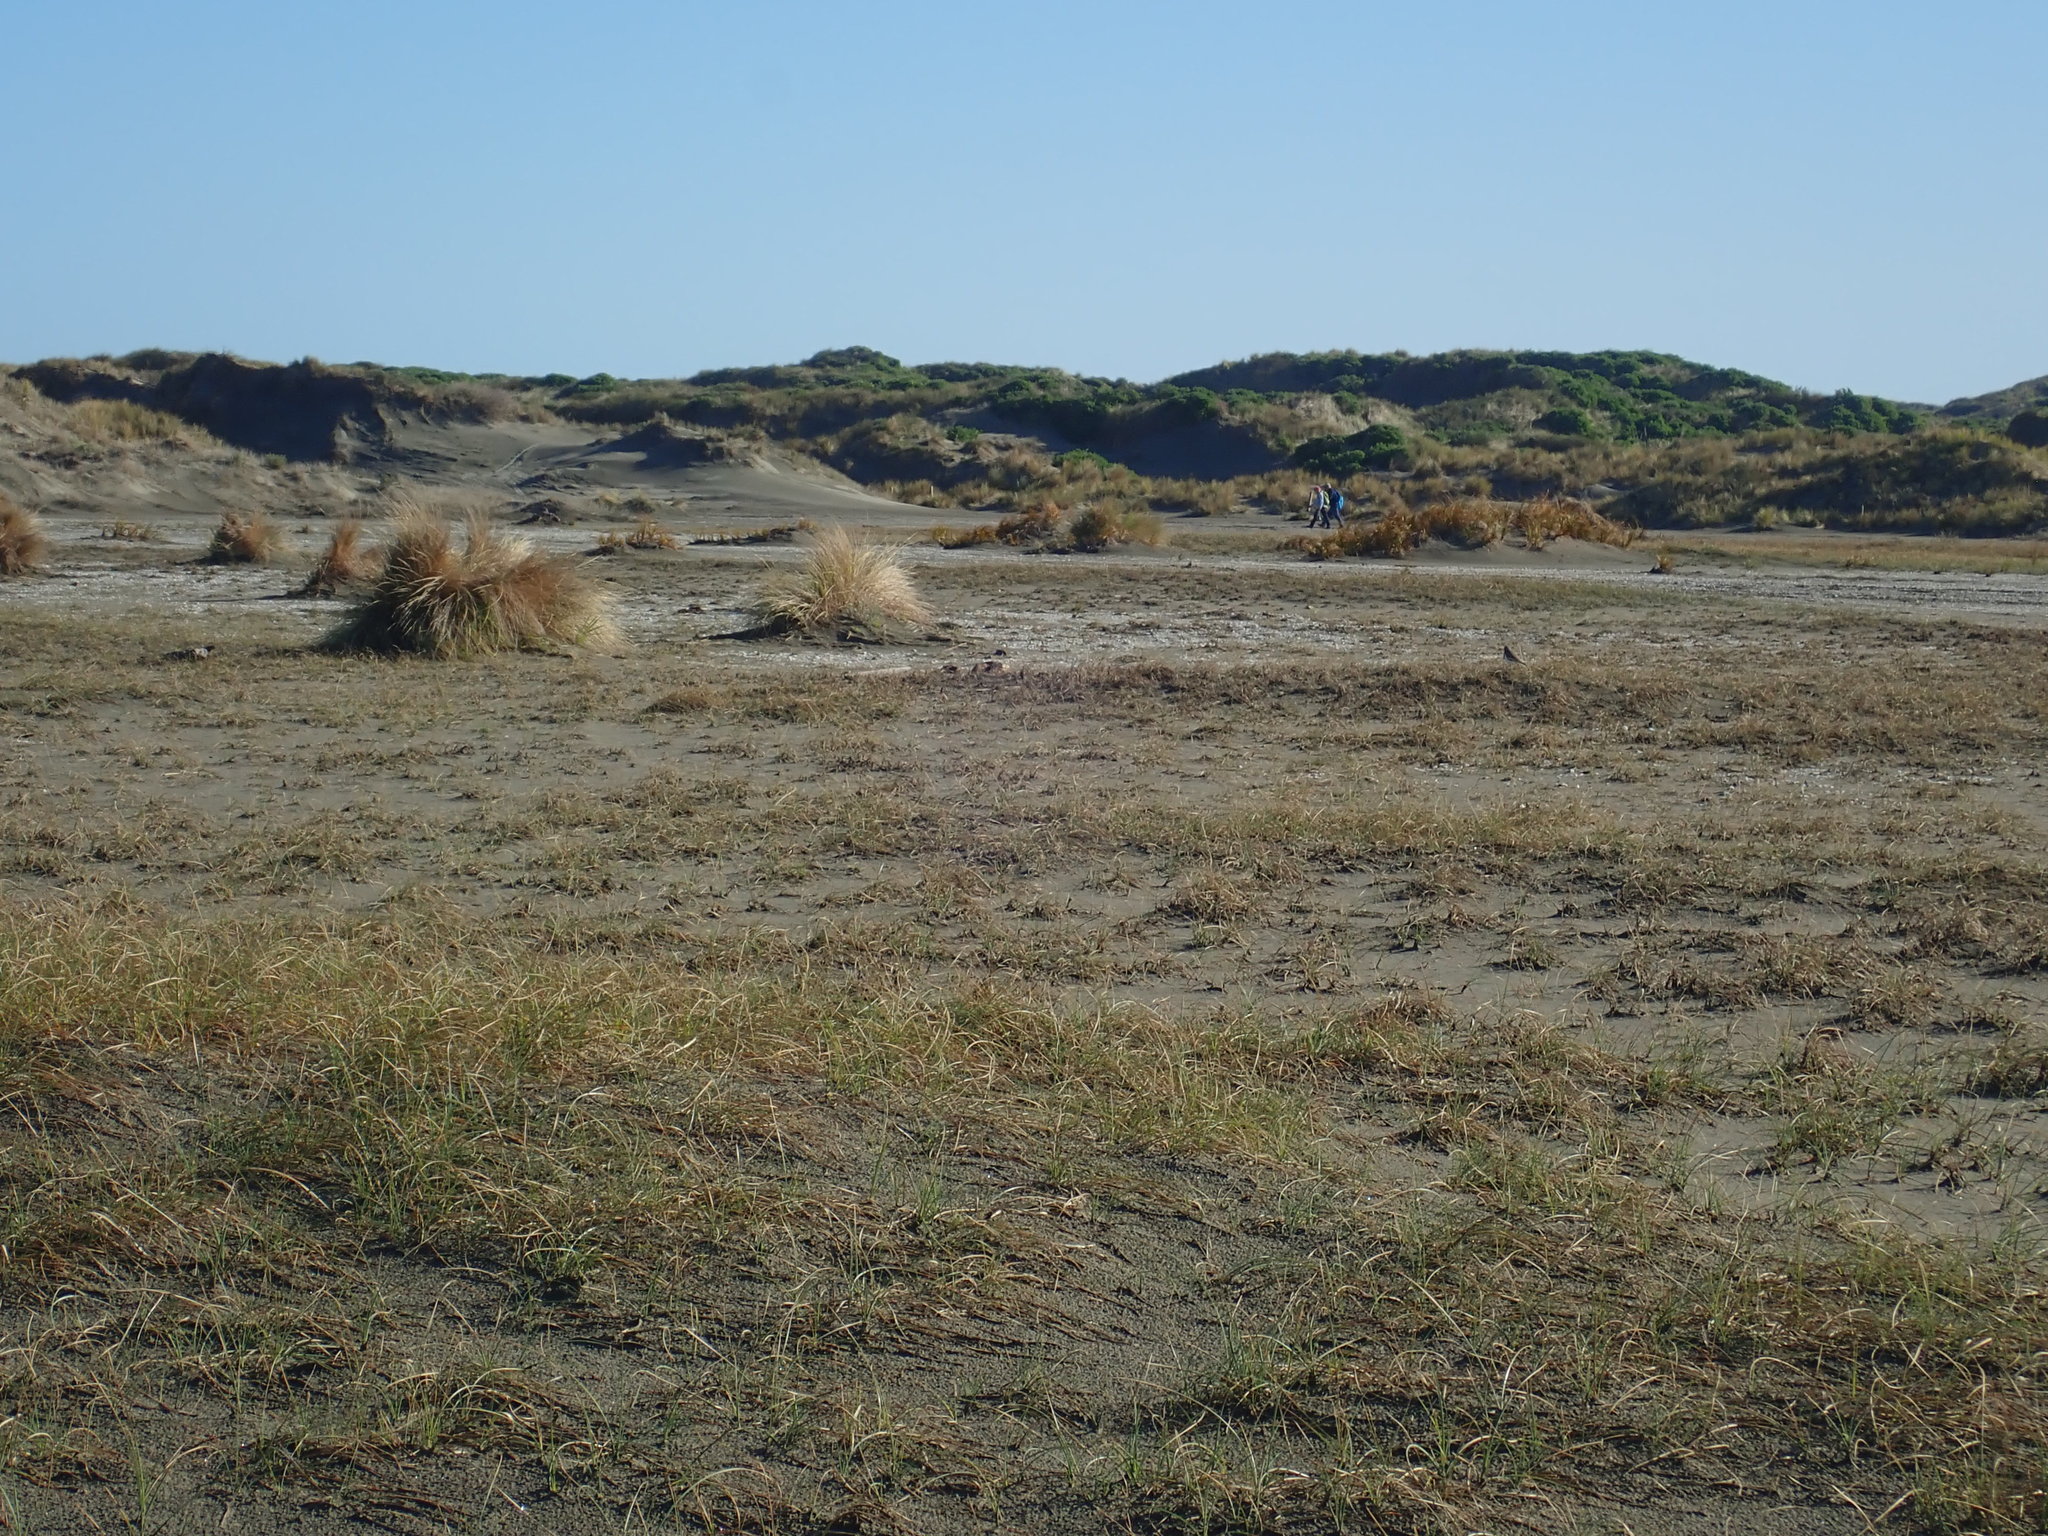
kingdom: Animalia
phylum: Chordata
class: Aves
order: Charadriiformes
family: Charadriidae
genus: Anarhynchus
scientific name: Anarhynchus
